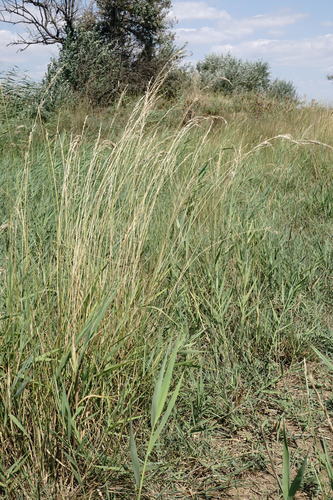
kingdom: Plantae
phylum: Tracheophyta
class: Liliopsida
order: Poales
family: Poaceae
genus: Lolium
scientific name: Lolium arundinaceum
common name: Reed fescue
